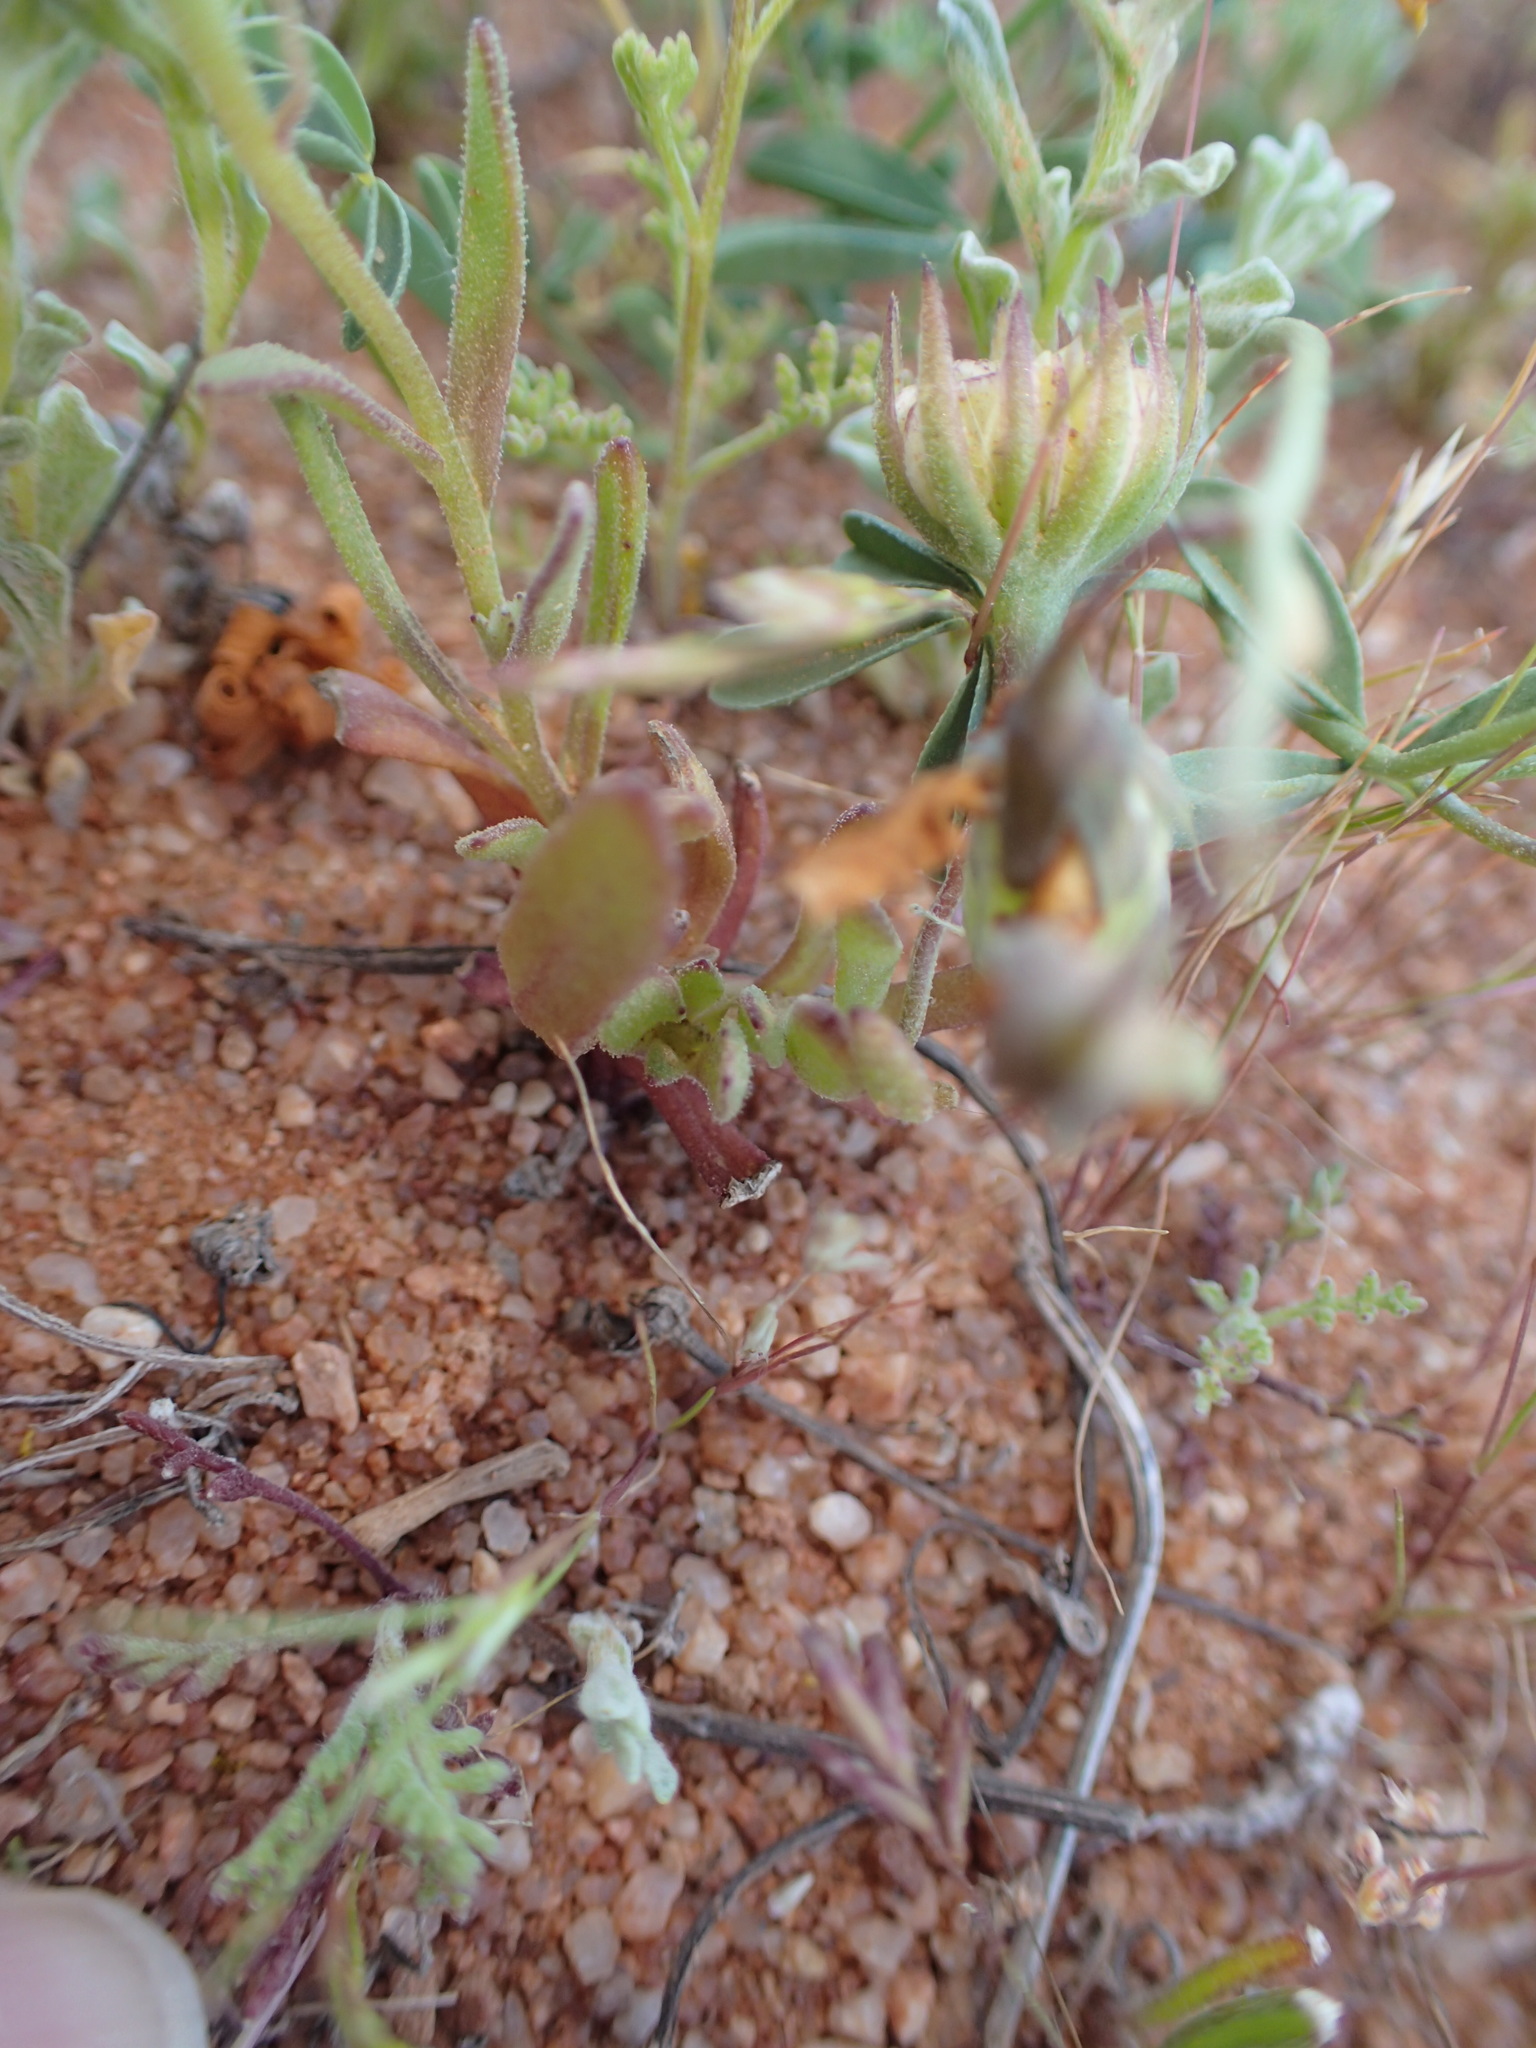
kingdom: Plantae
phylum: Tracheophyta
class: Magnoliopsida
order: Asterales
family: Asteraceae
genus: Dimorphotheca
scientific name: Dimorphotheca sinuata
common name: Glandular cape marigold
